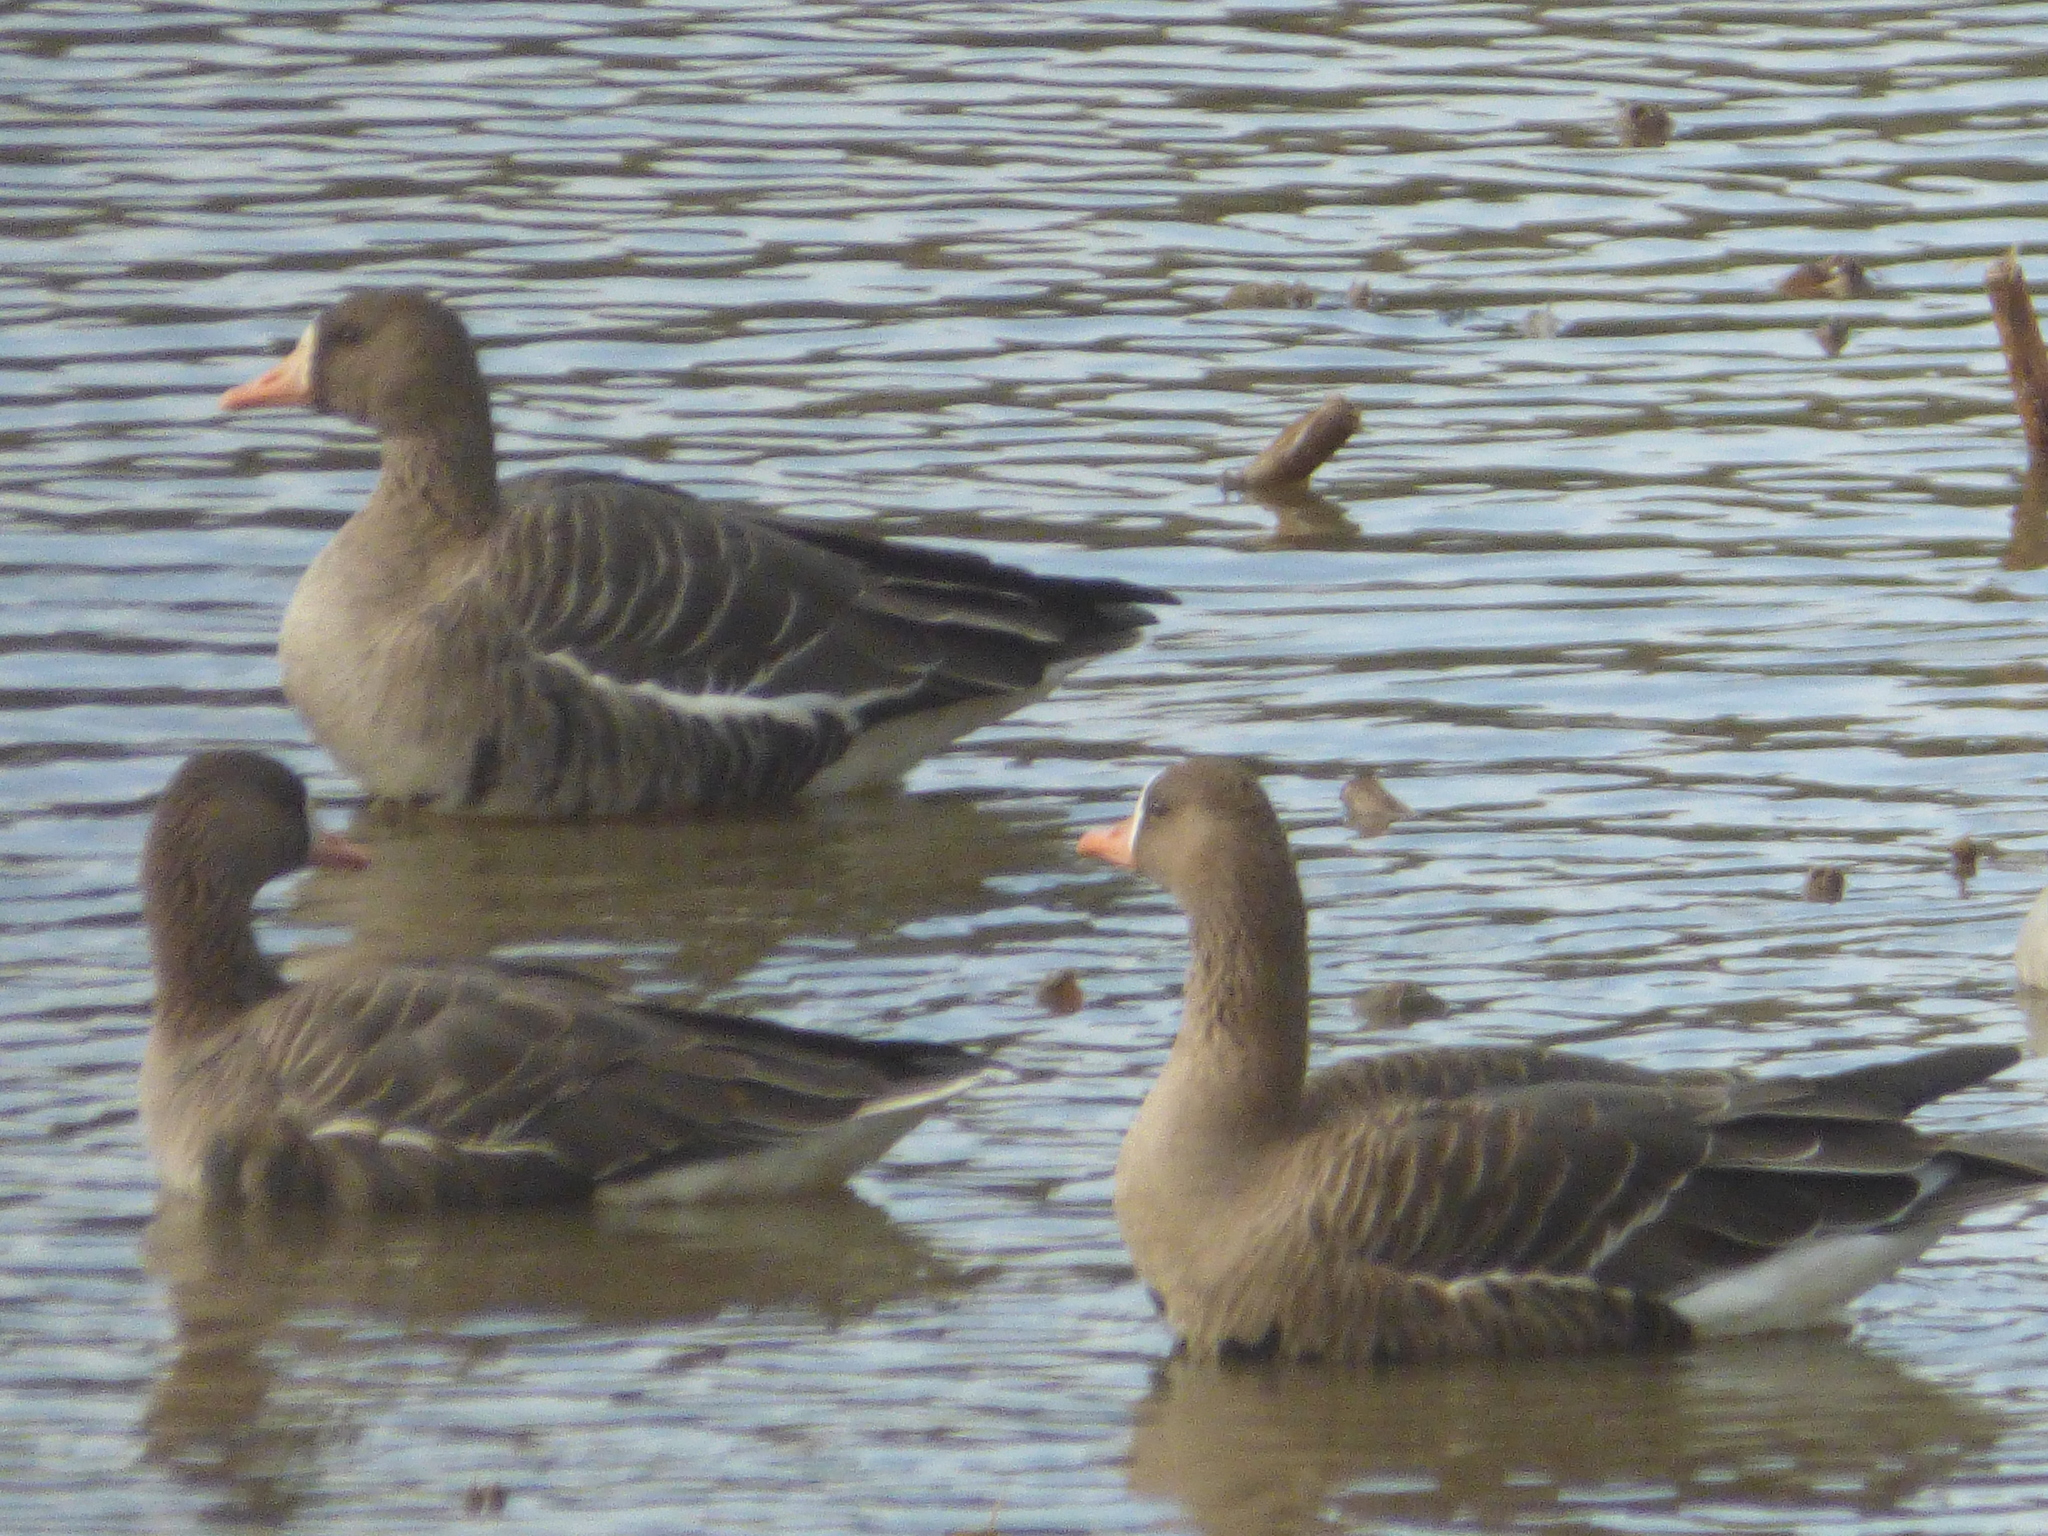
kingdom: Animalia
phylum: Chordata
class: Aves
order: Anseriformes
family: Anatidae
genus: Anser
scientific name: Anser albifrons
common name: Greater white-fronted goose
